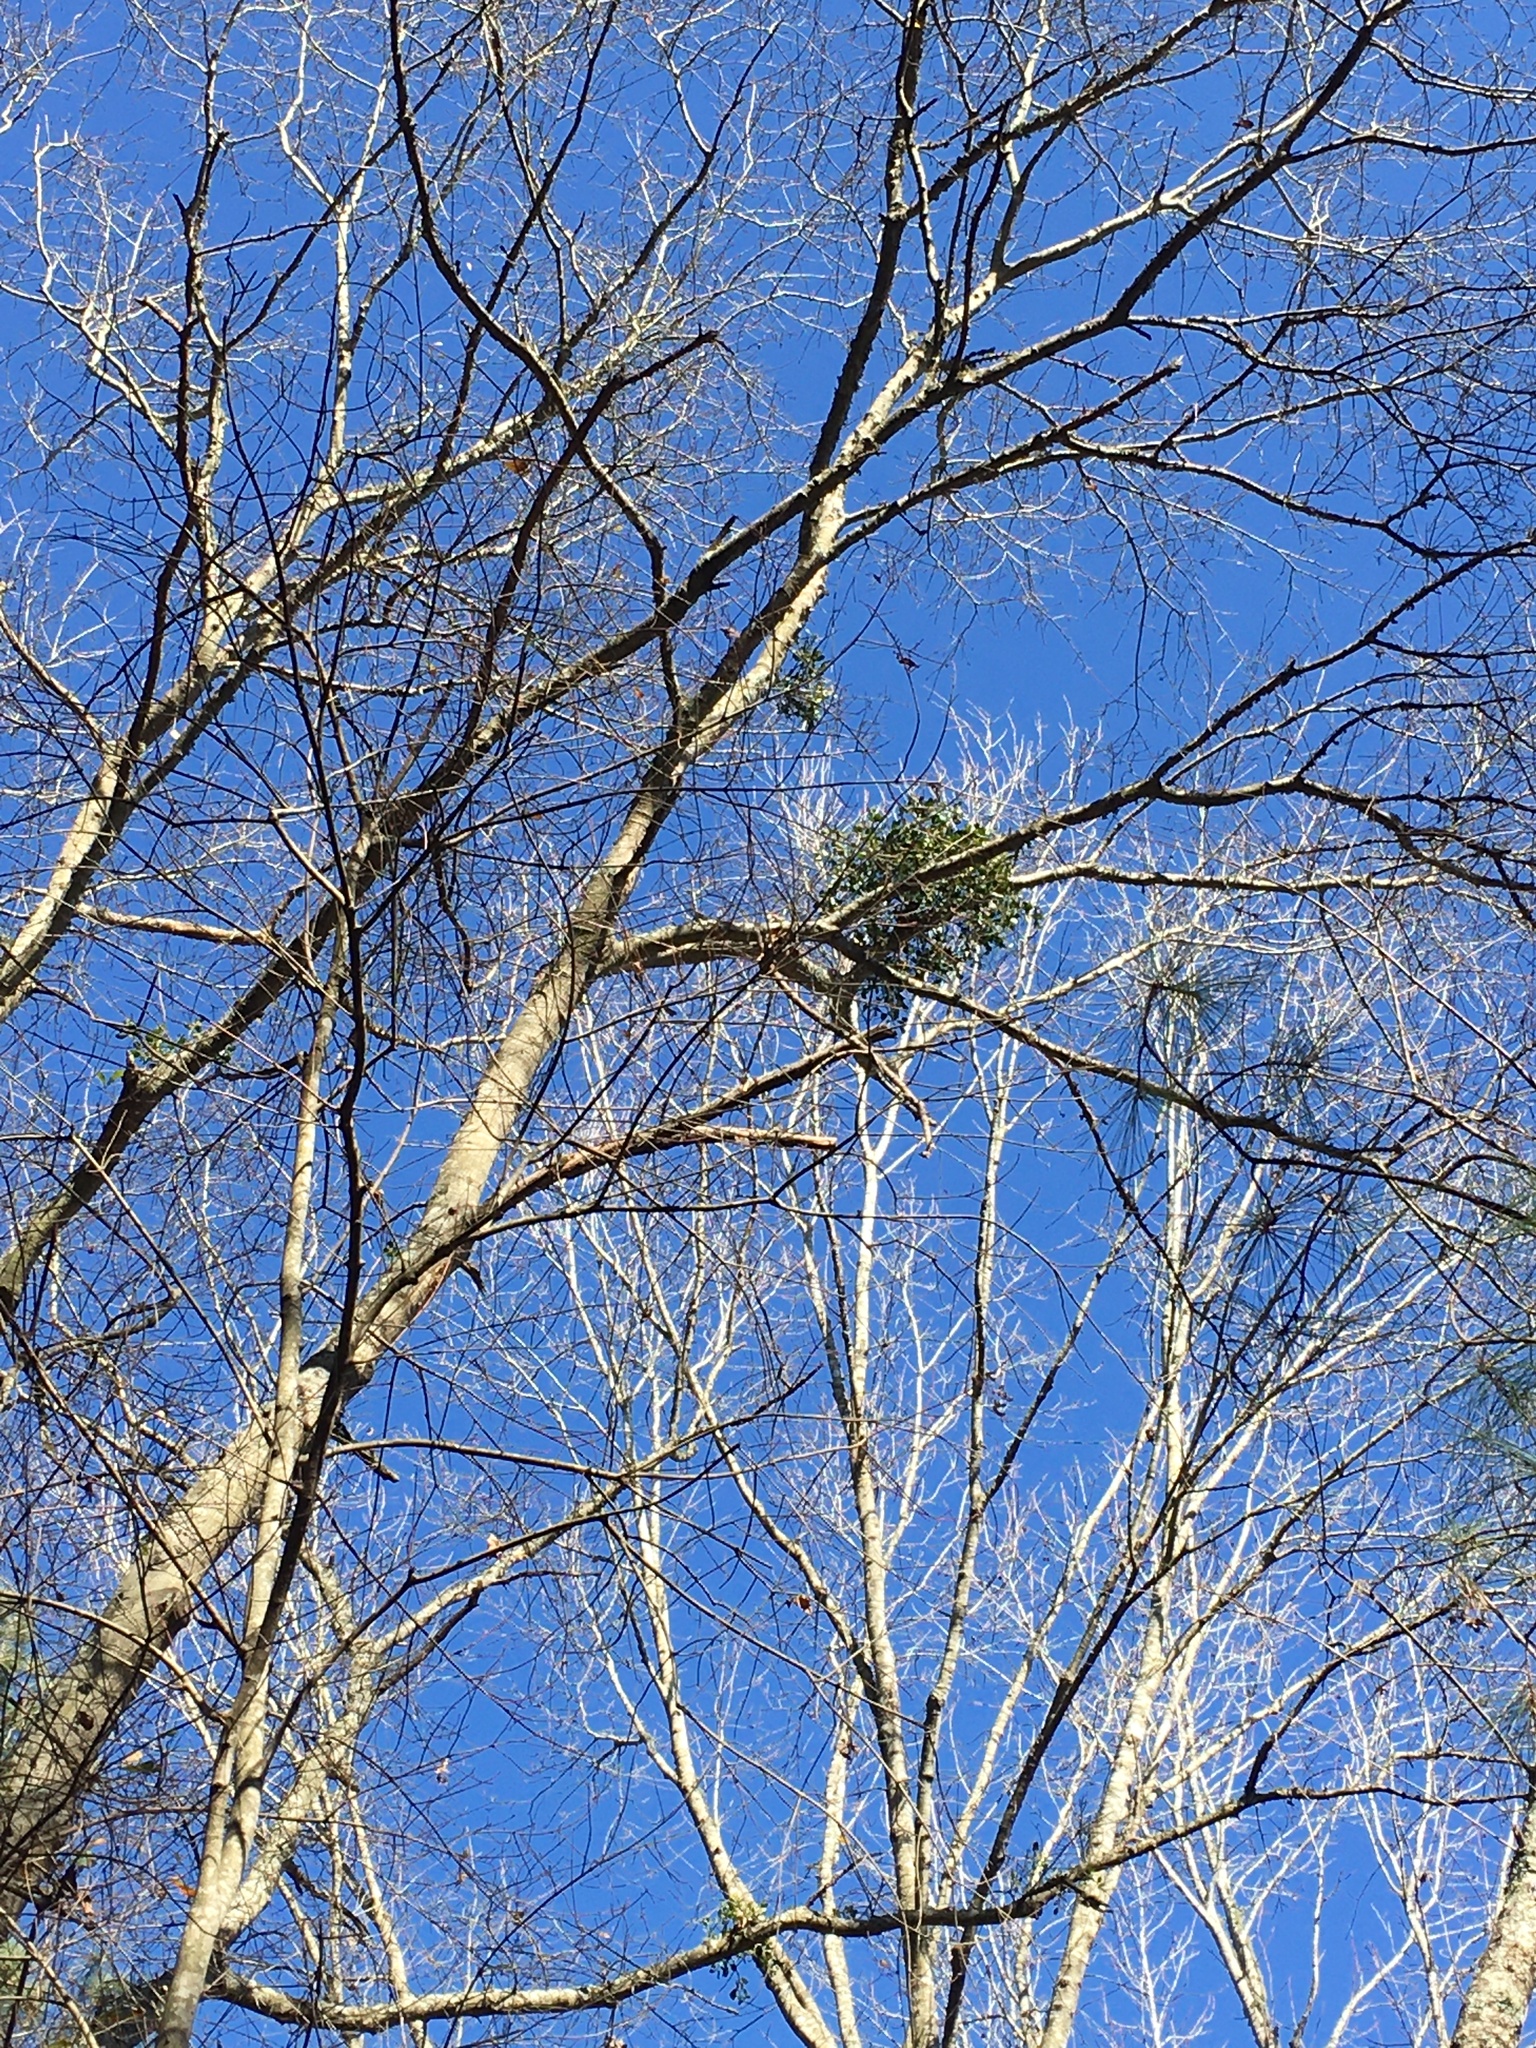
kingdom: Plantae
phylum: Tracheophyta
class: Magnoliopsida
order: Santalales
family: Viscaceae
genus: Phoradendron
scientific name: Phoradendron leucarpum
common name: Pacific mistletoe
